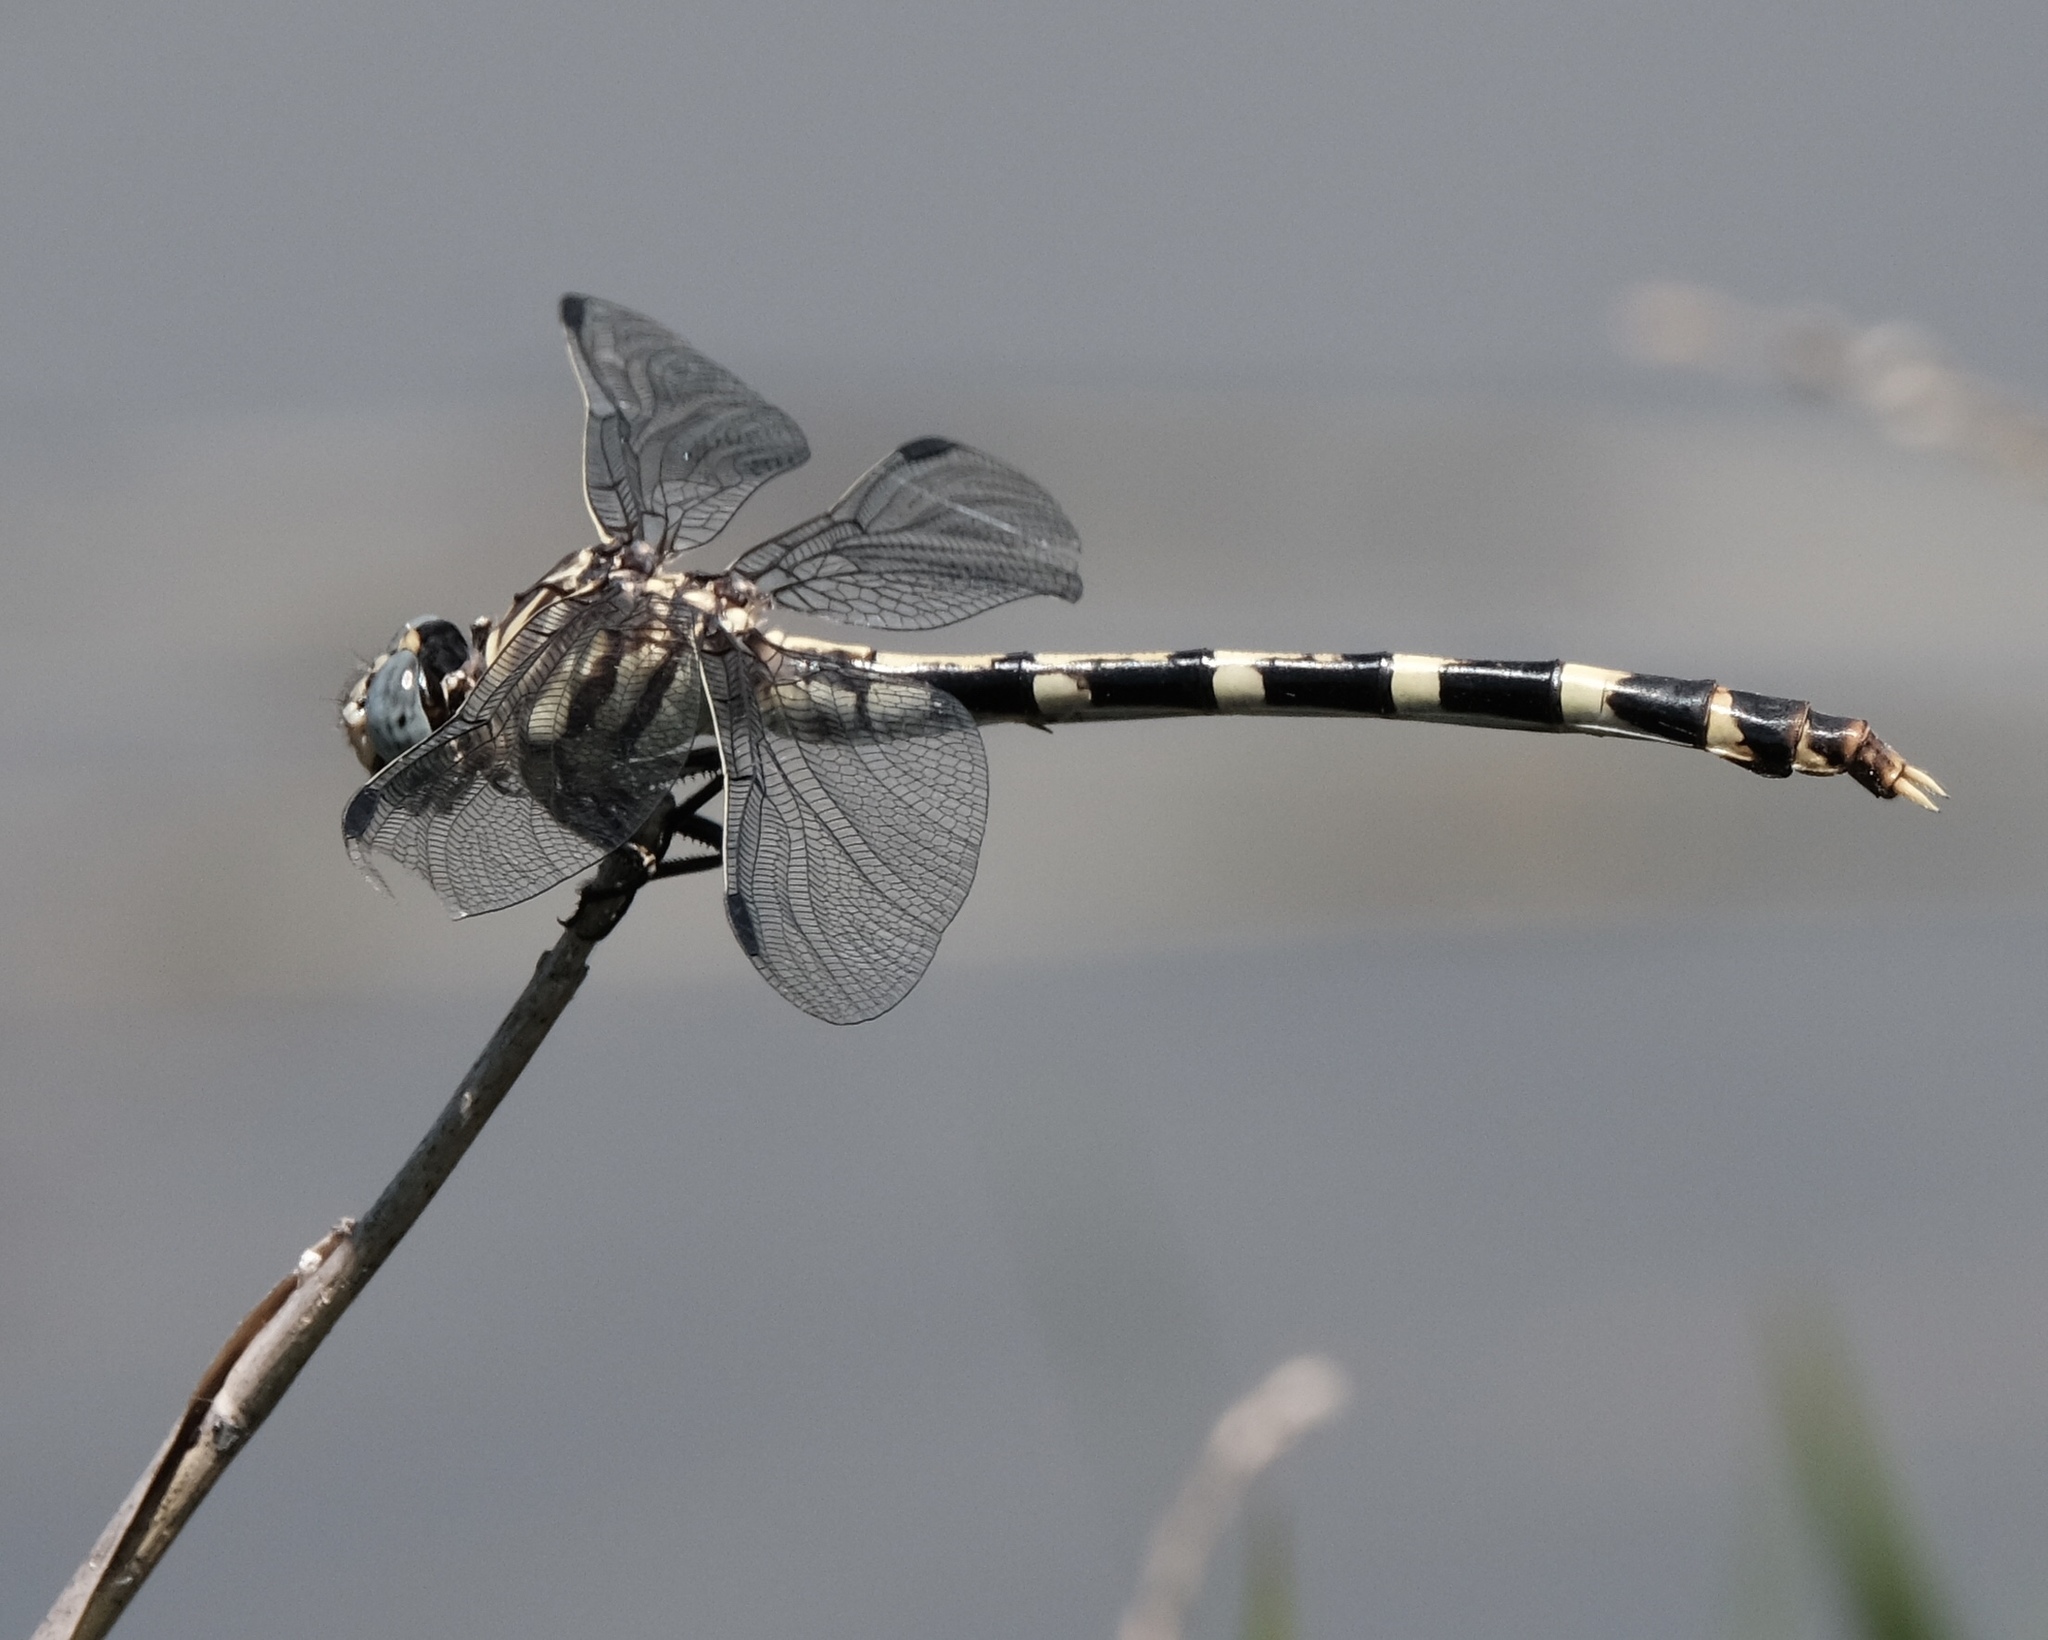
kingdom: Animalia
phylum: Arthropoda
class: Insecta
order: Odonata
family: Gomphidae
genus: Phyllogomphoides
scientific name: Phyllogomphoides stigmatus
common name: Four-striped leaftail
